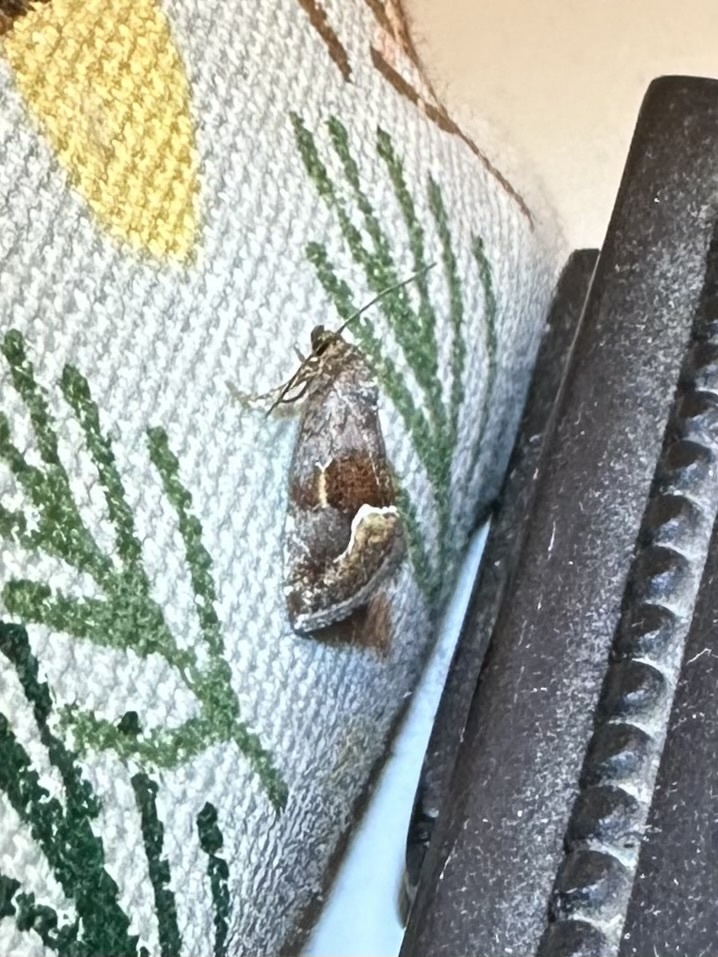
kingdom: Animalia
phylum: Arthropoda
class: Insecta
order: Lepidoptera
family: Noctuidae
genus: Deltote
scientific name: Deltote bellicula
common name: Bog glyph
